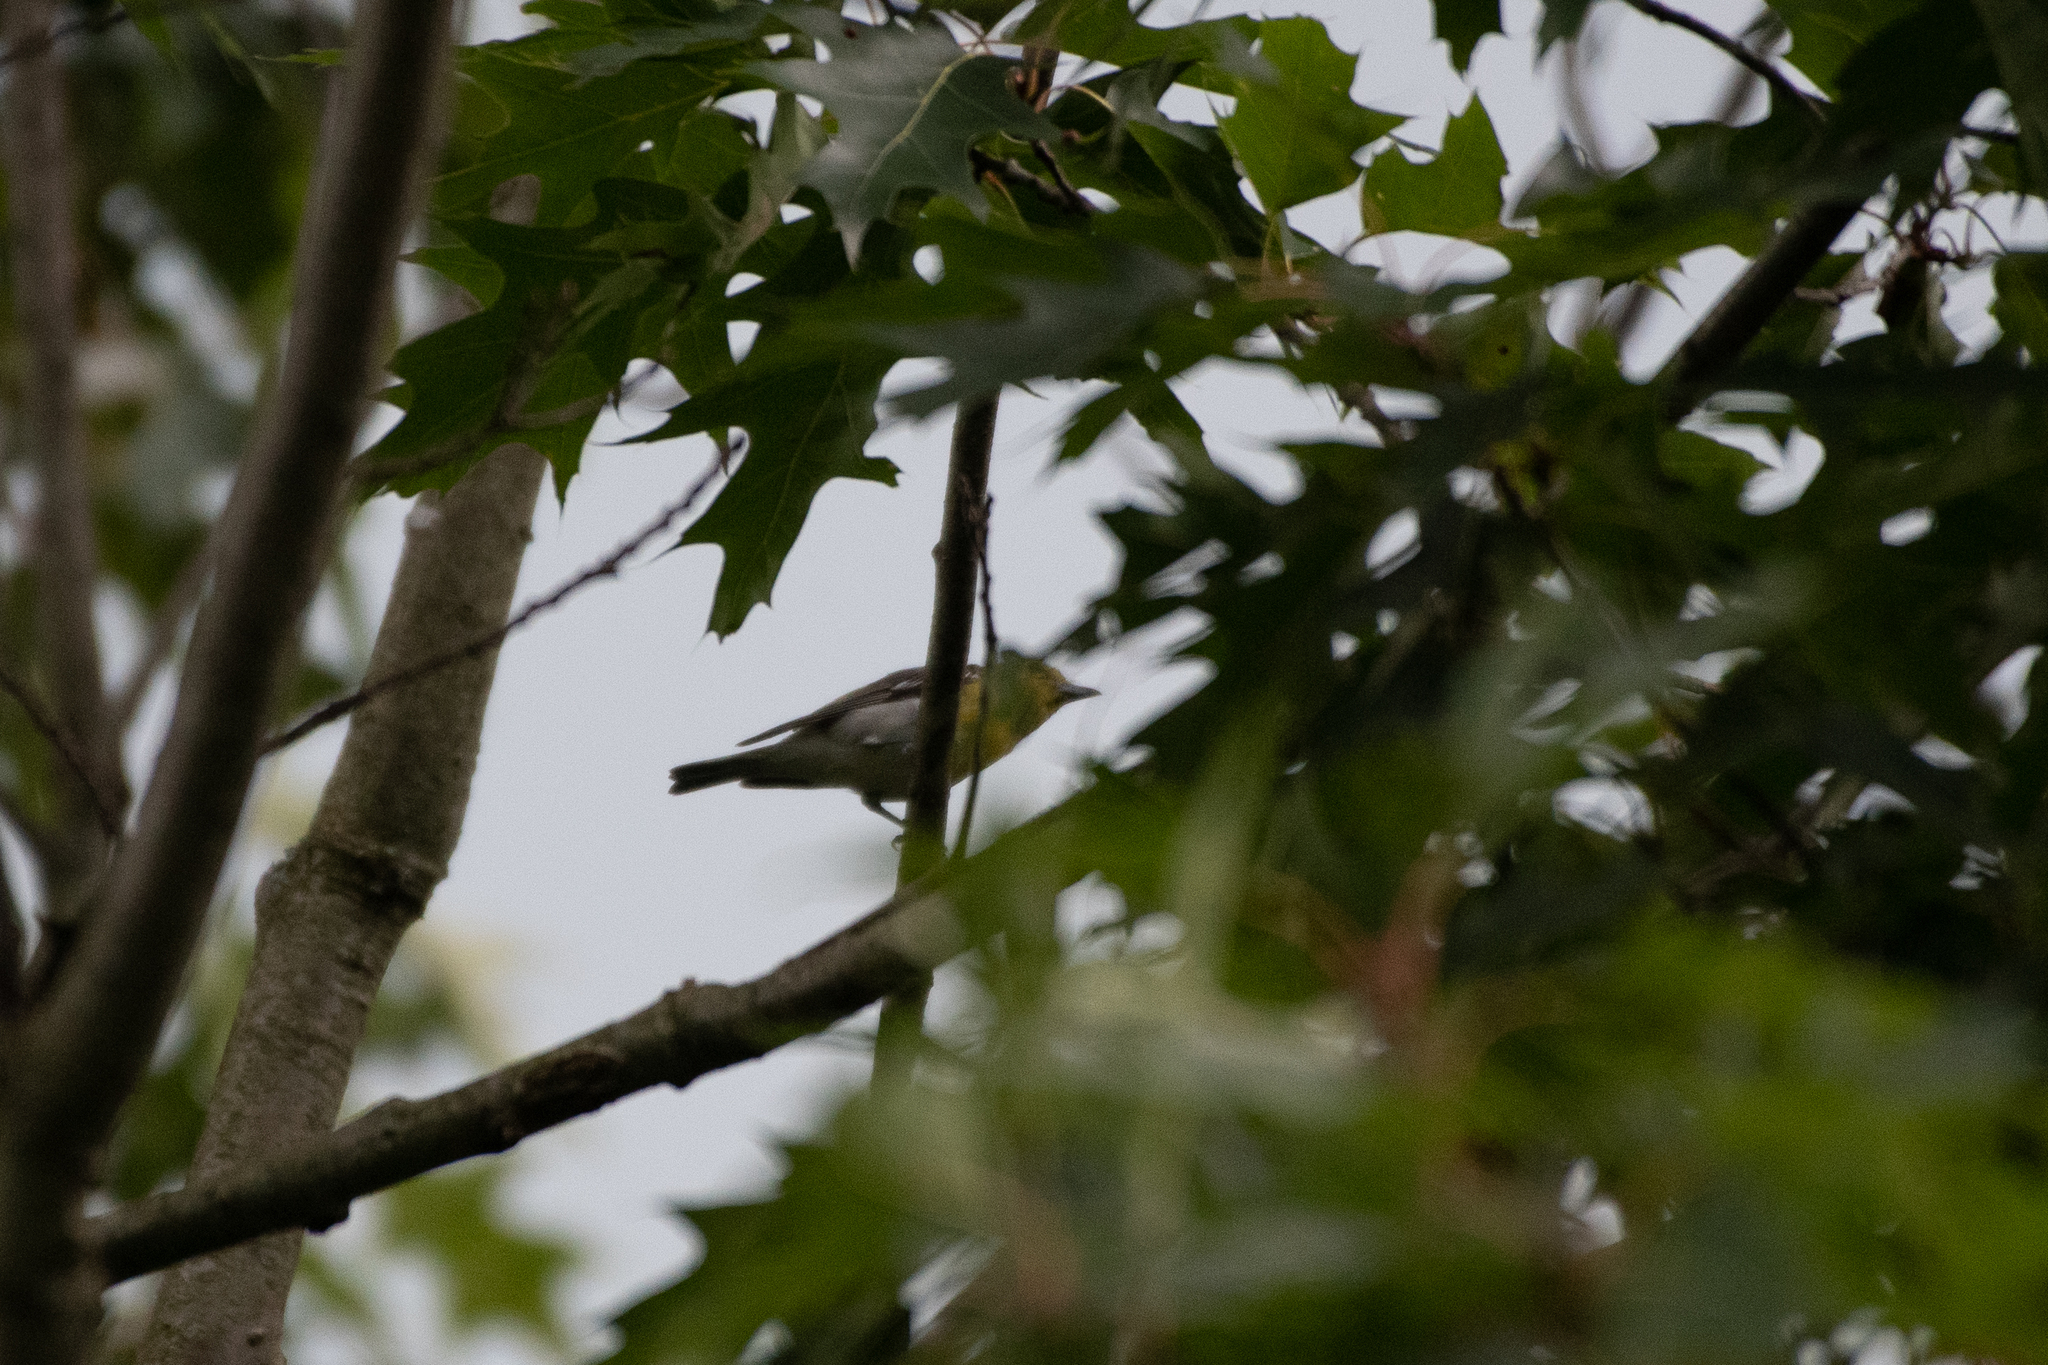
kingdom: Animalia
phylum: Chordata
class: Aves
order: Passeriformes
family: Vireonidae
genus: Vireo
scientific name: Vireo flavifrons
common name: Yellow-throated vireo
